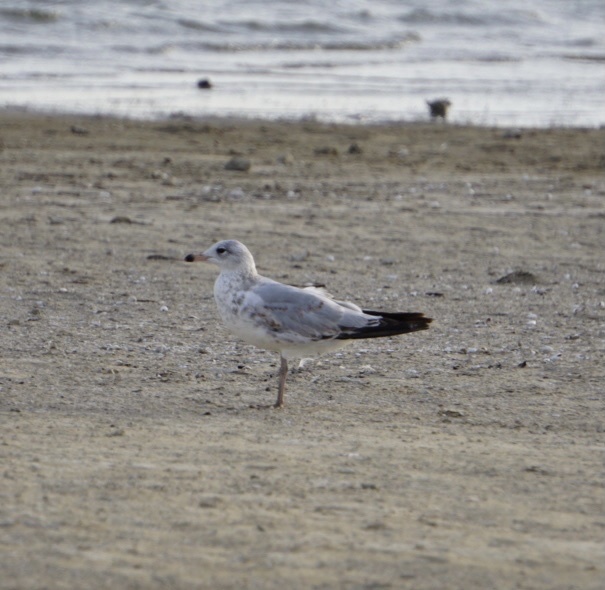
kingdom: Animalia
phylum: Chordata
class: Aves
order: Charadriiformes
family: Laridae
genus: Larus
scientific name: Larus delawarensis
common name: Ring-billed gull
